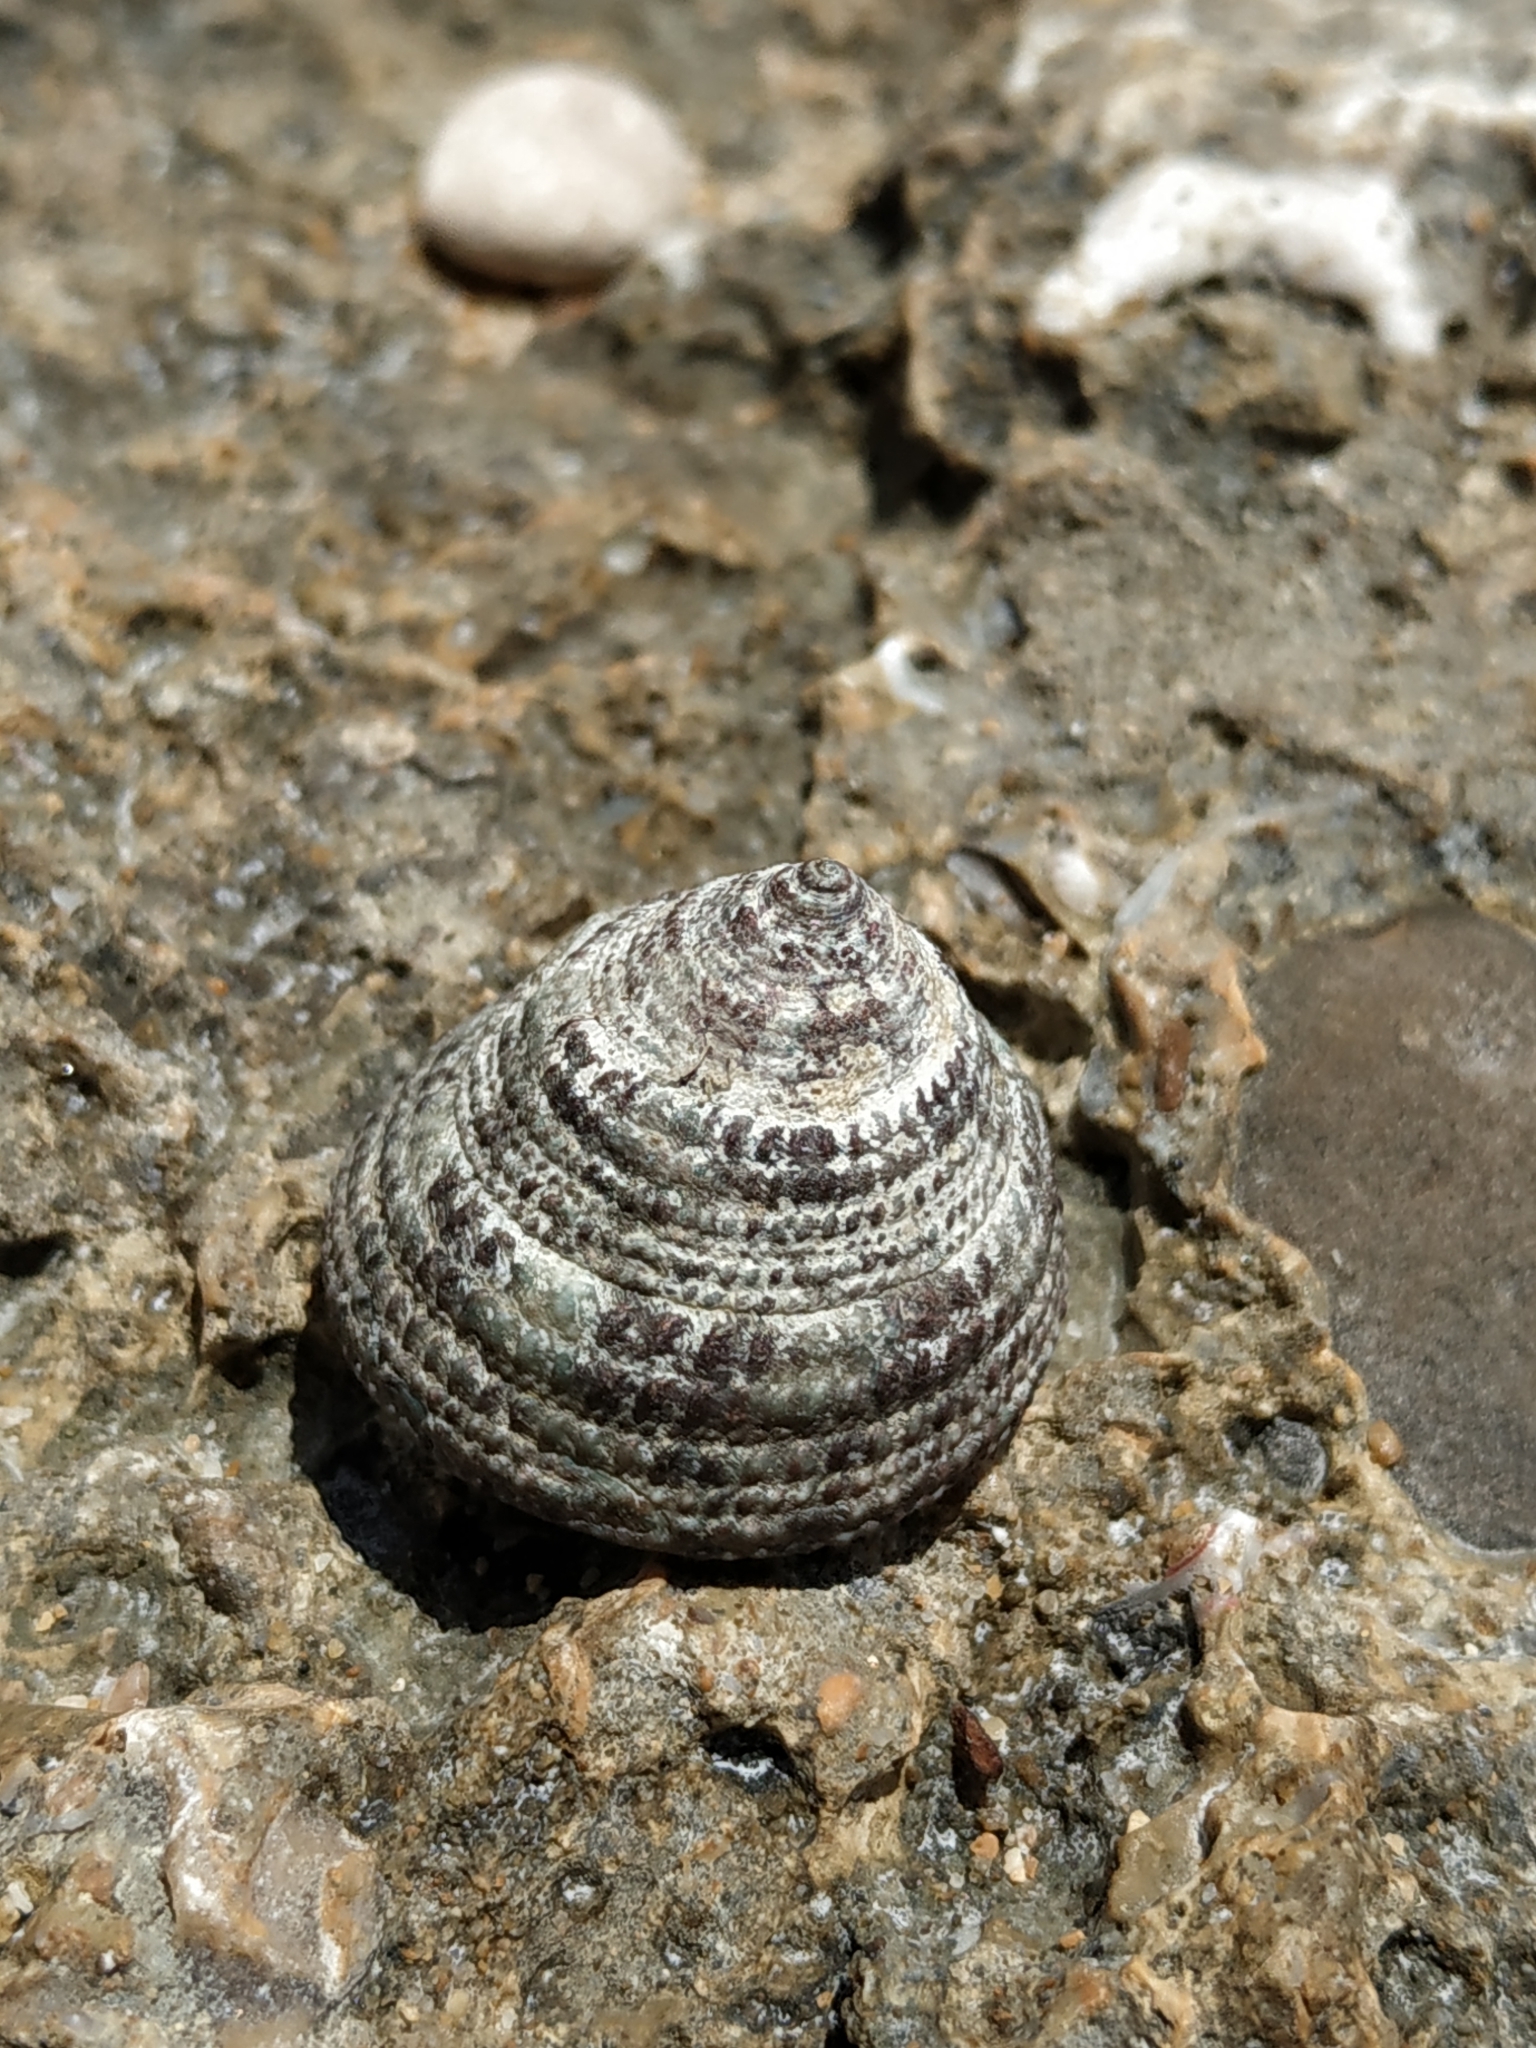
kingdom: Animalia
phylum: Mollusca
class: Gastropoda
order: Trochida
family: Trochidae
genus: Trochus
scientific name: Trochus chloromphalus
